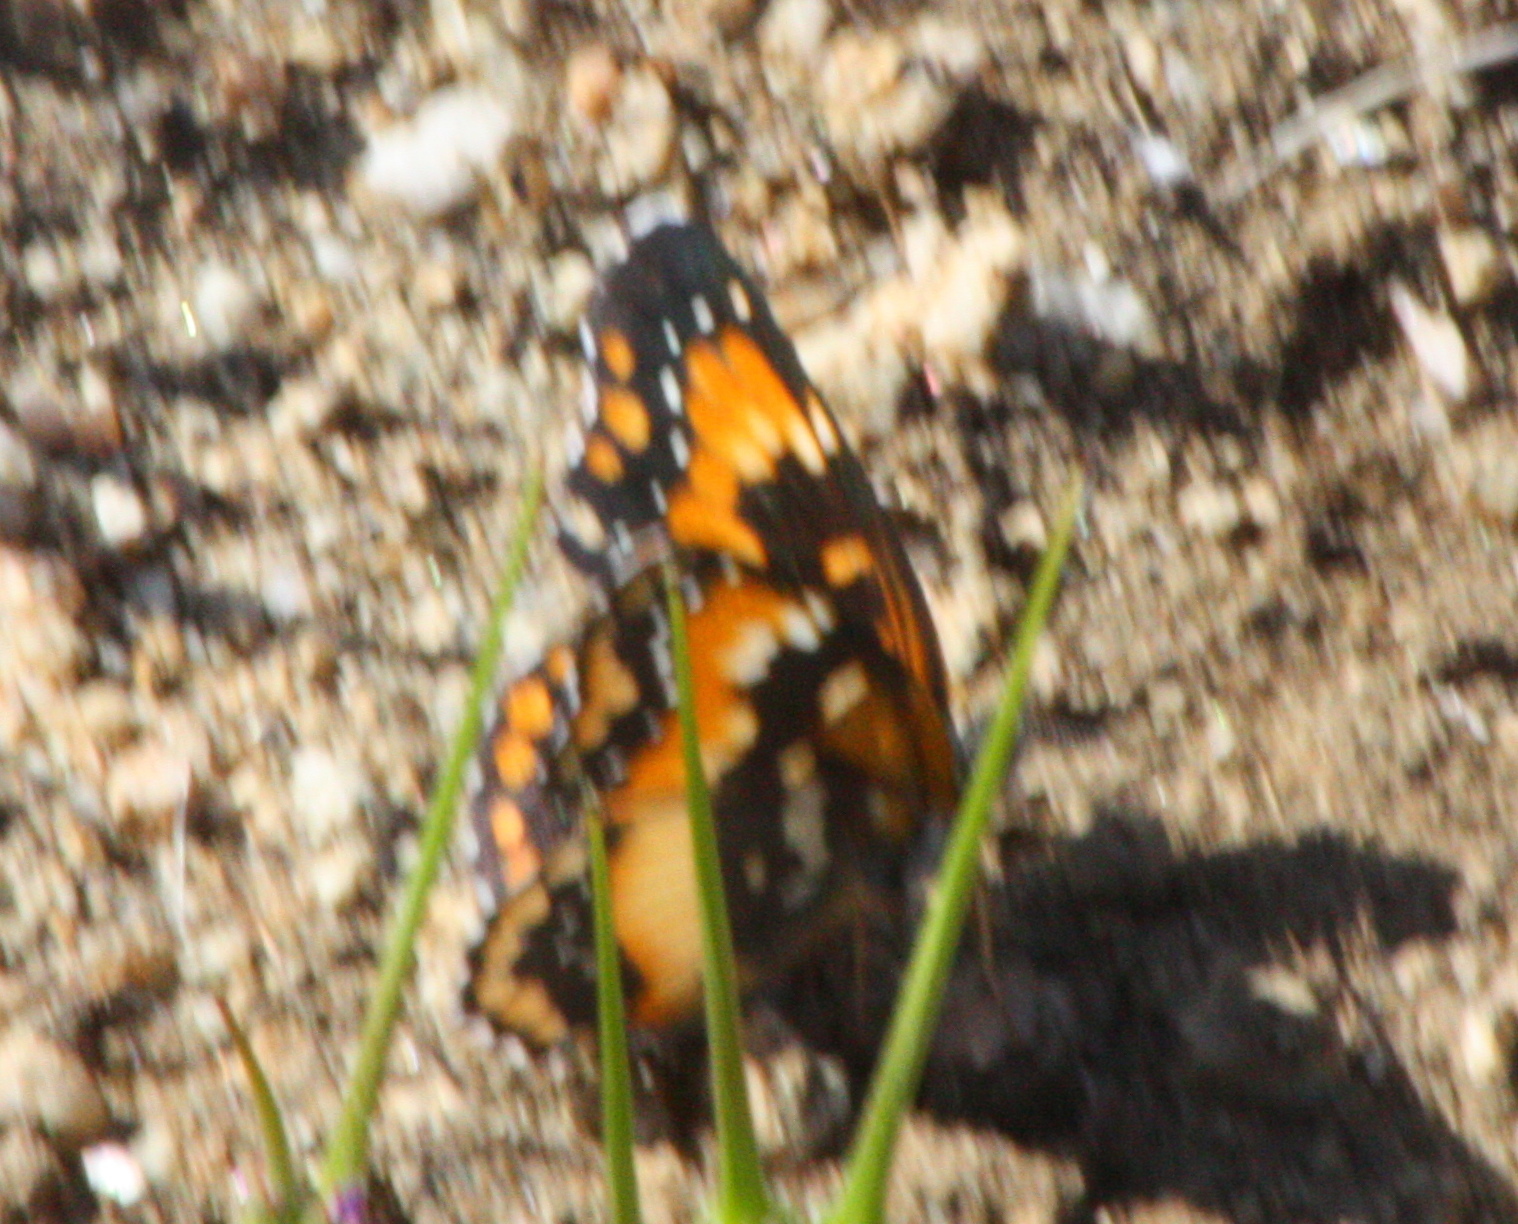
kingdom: Animalia
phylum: Arthropoda
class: Insecta
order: Lepidoptera
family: Nymphalidae
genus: Chlosyne
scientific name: Chlosyne californica
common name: California patch
